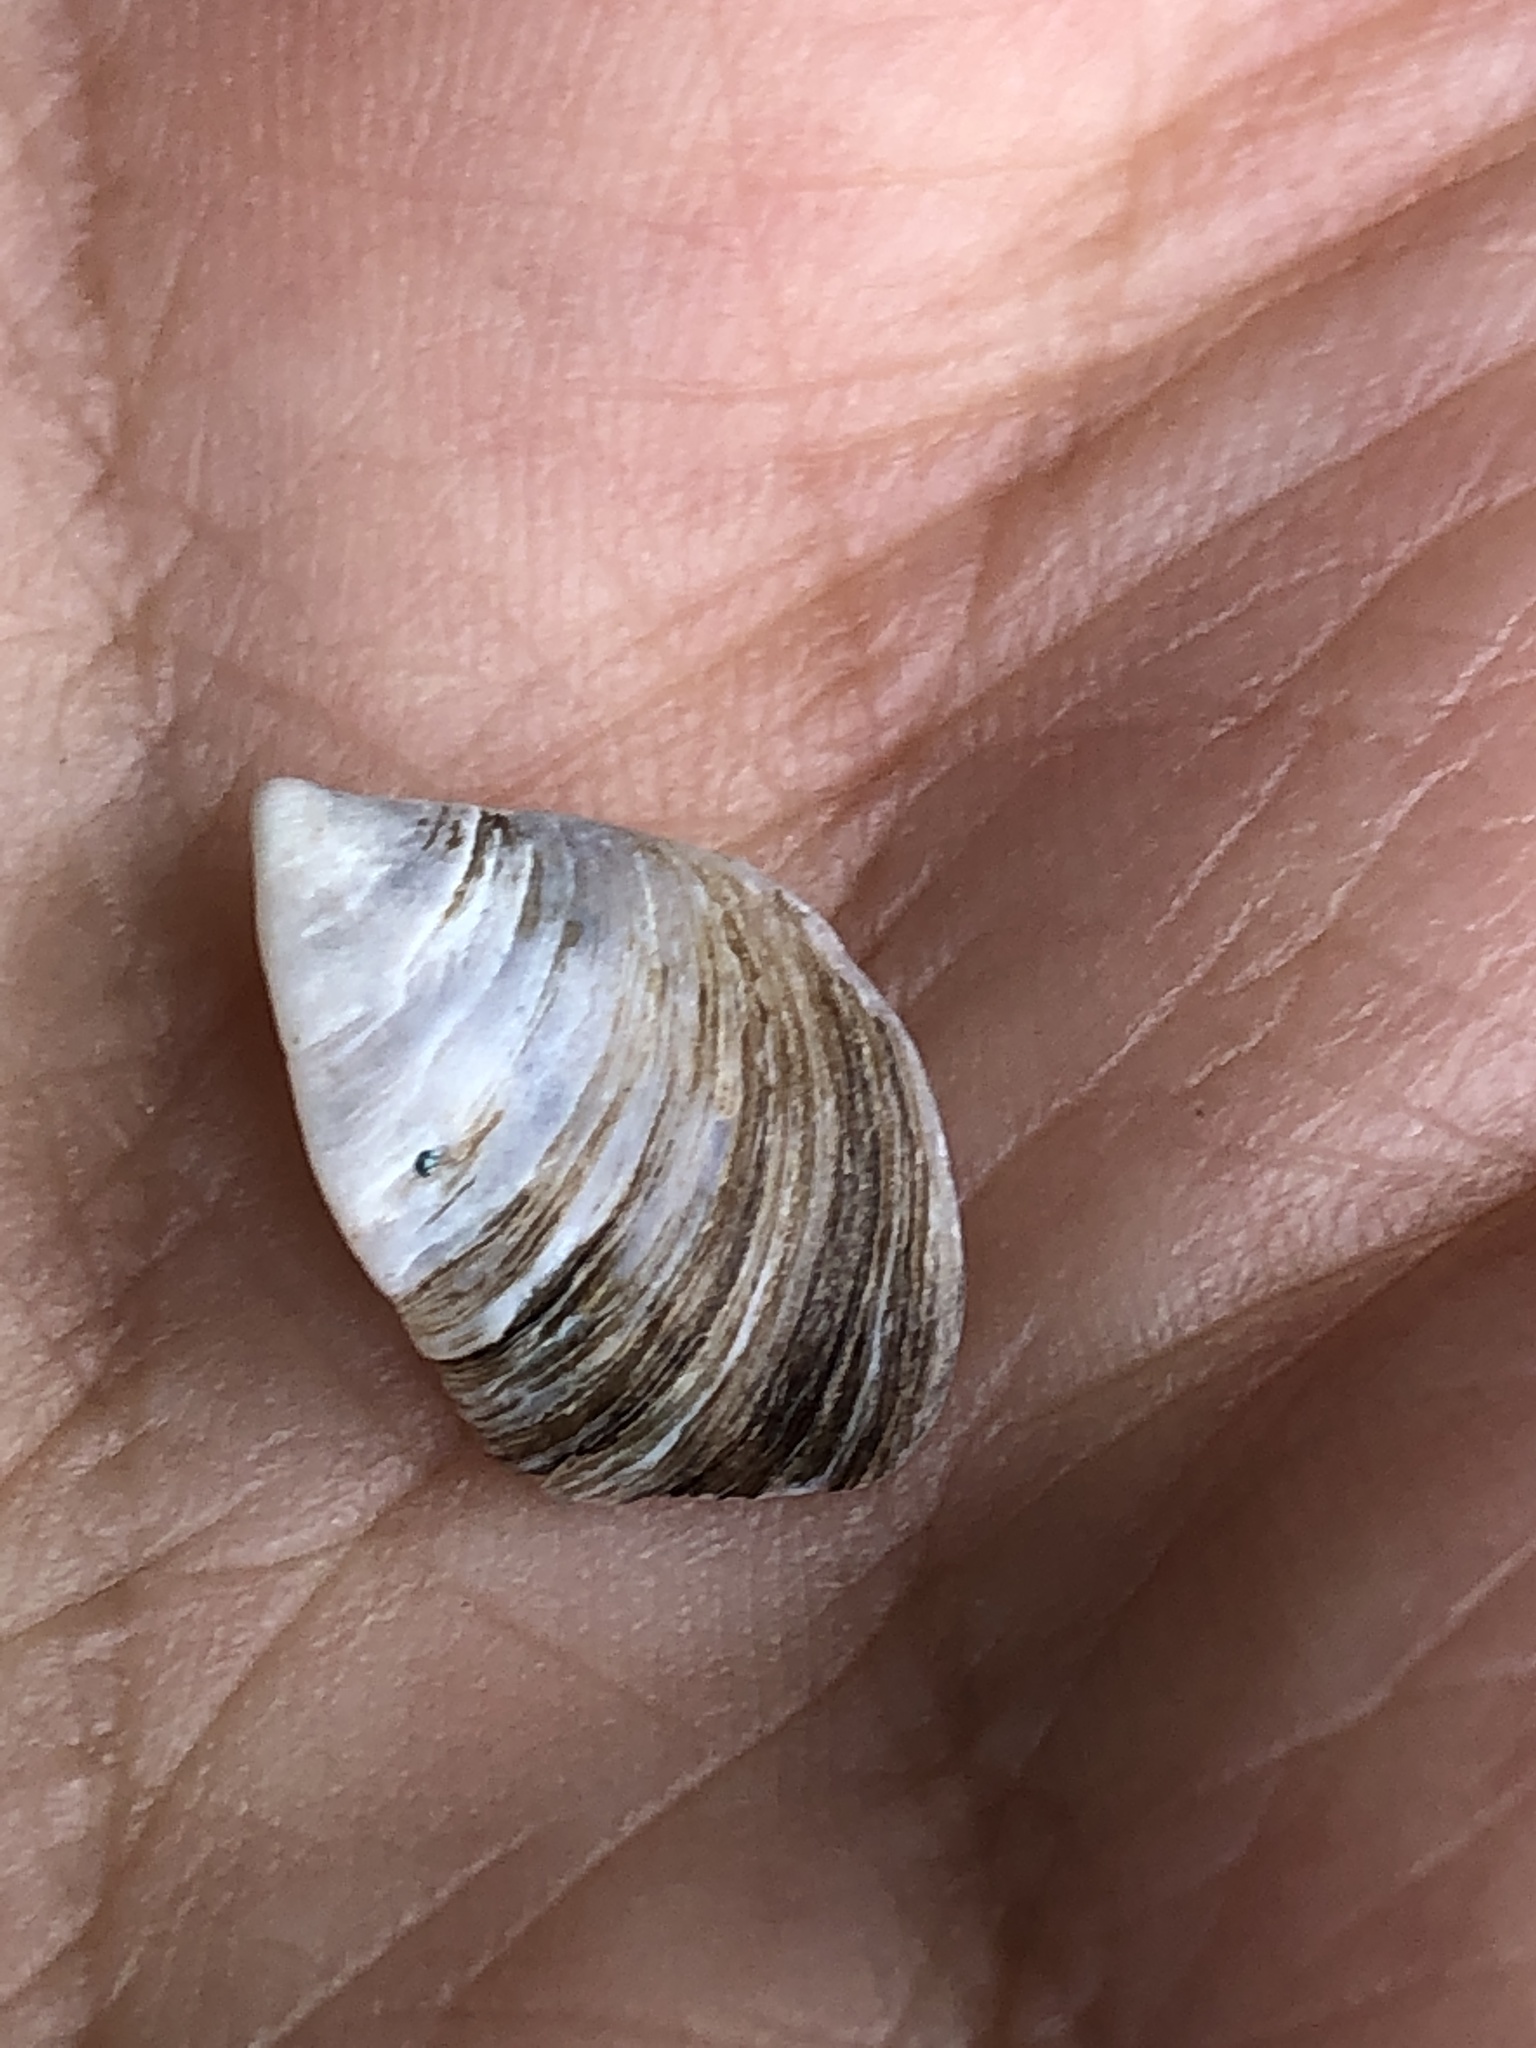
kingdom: Animalia
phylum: Mollusca
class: Bivalvia
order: Myida
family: Dreissenidae
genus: Dreissena
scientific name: Dreissena polymorpha
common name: Zebra mussel
